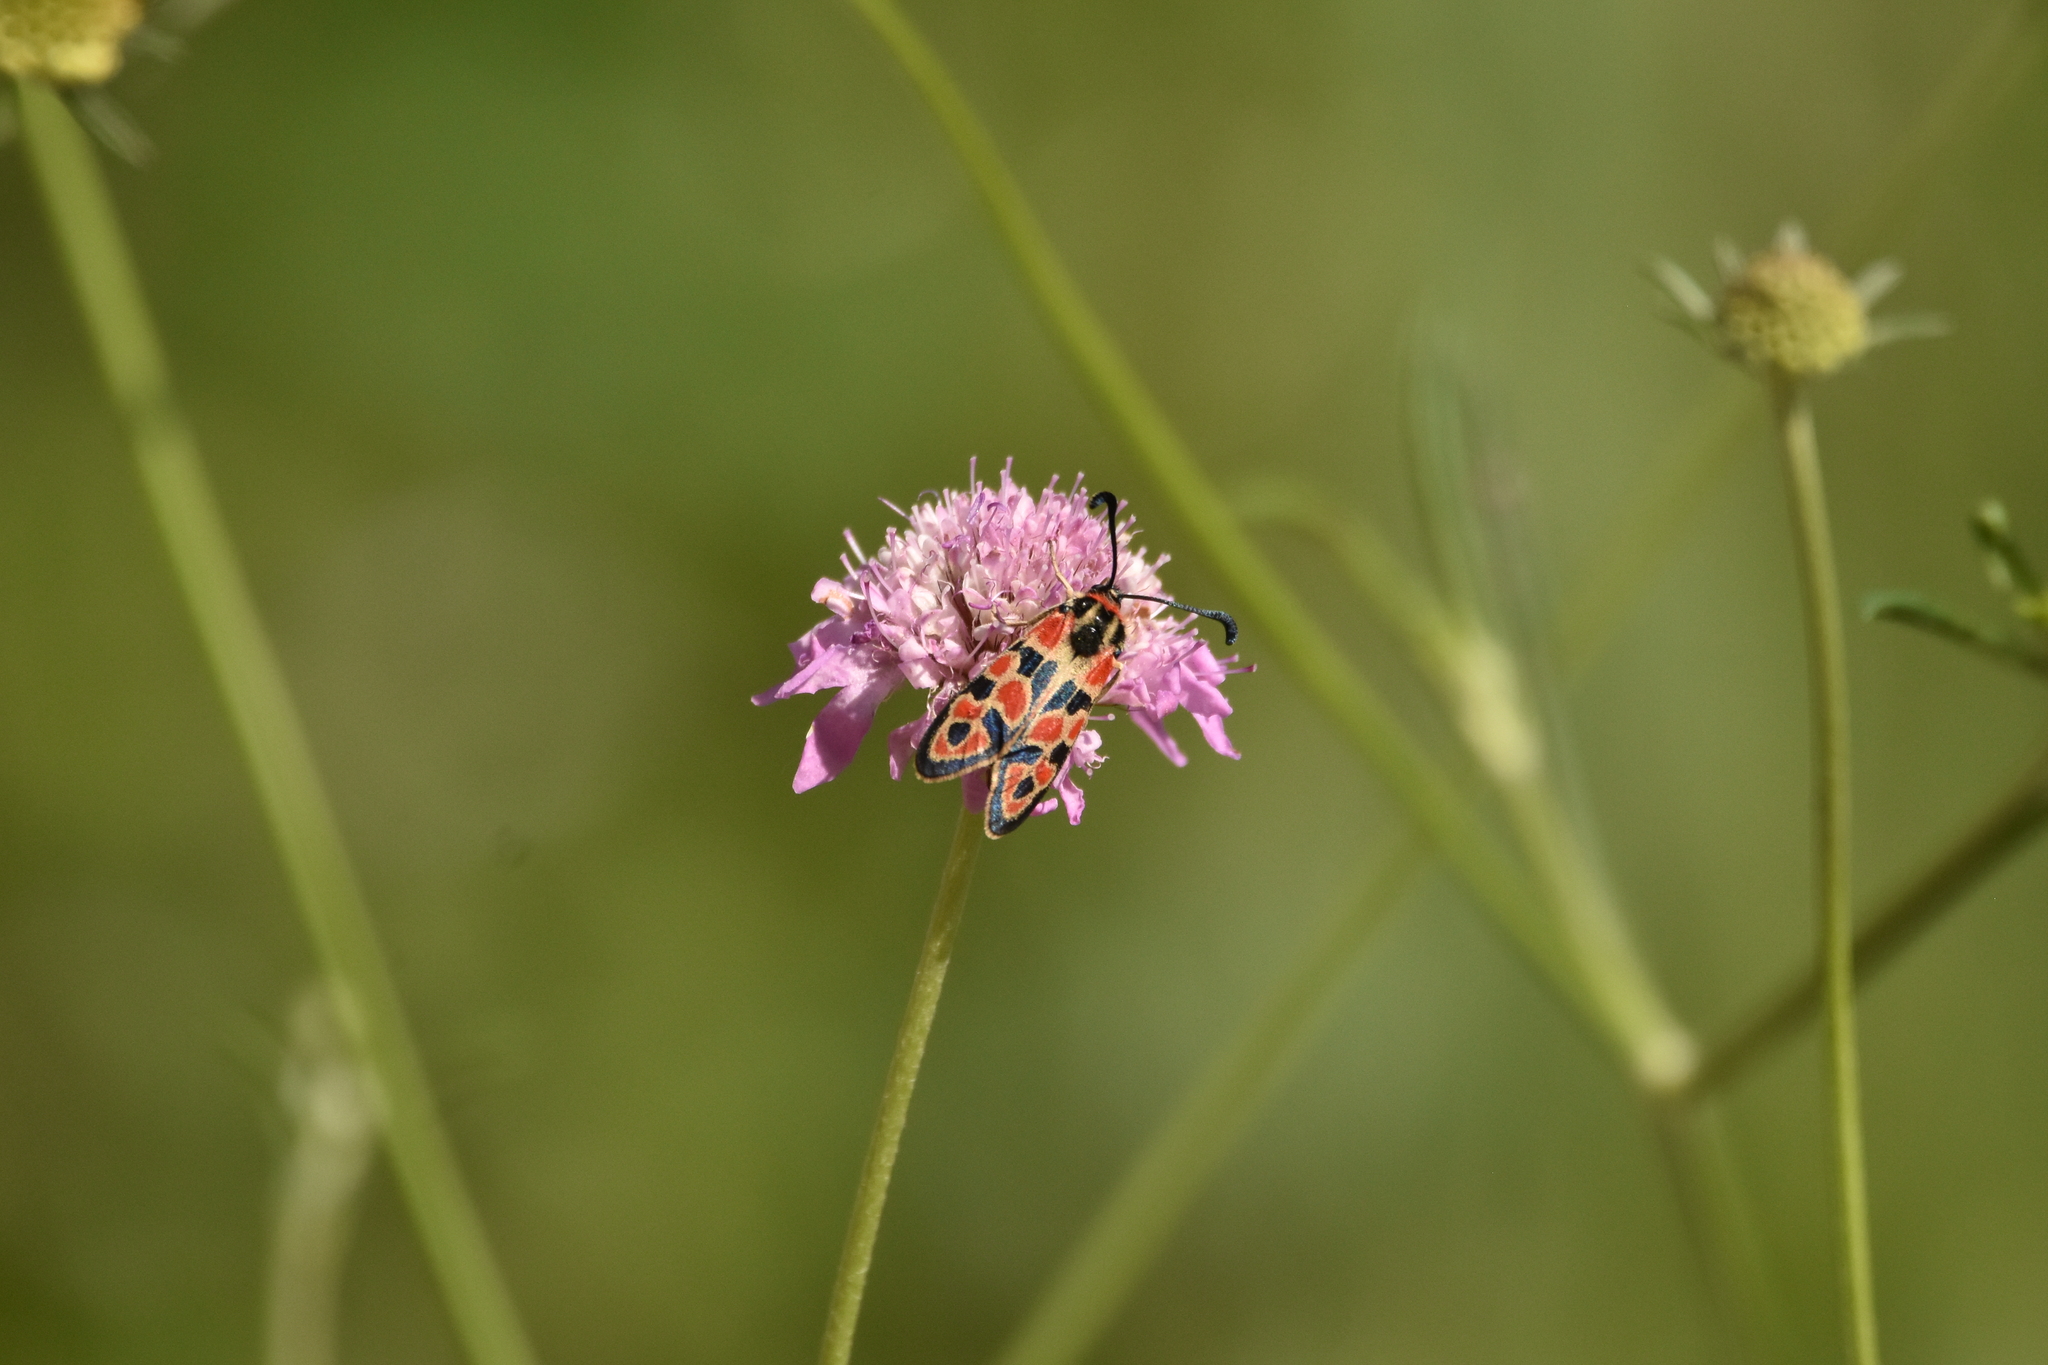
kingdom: Animalia
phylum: Arthropoda
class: Insecta
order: Lepidoptera
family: Zygaenidae
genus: Zygaena
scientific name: Zygaena fausta
